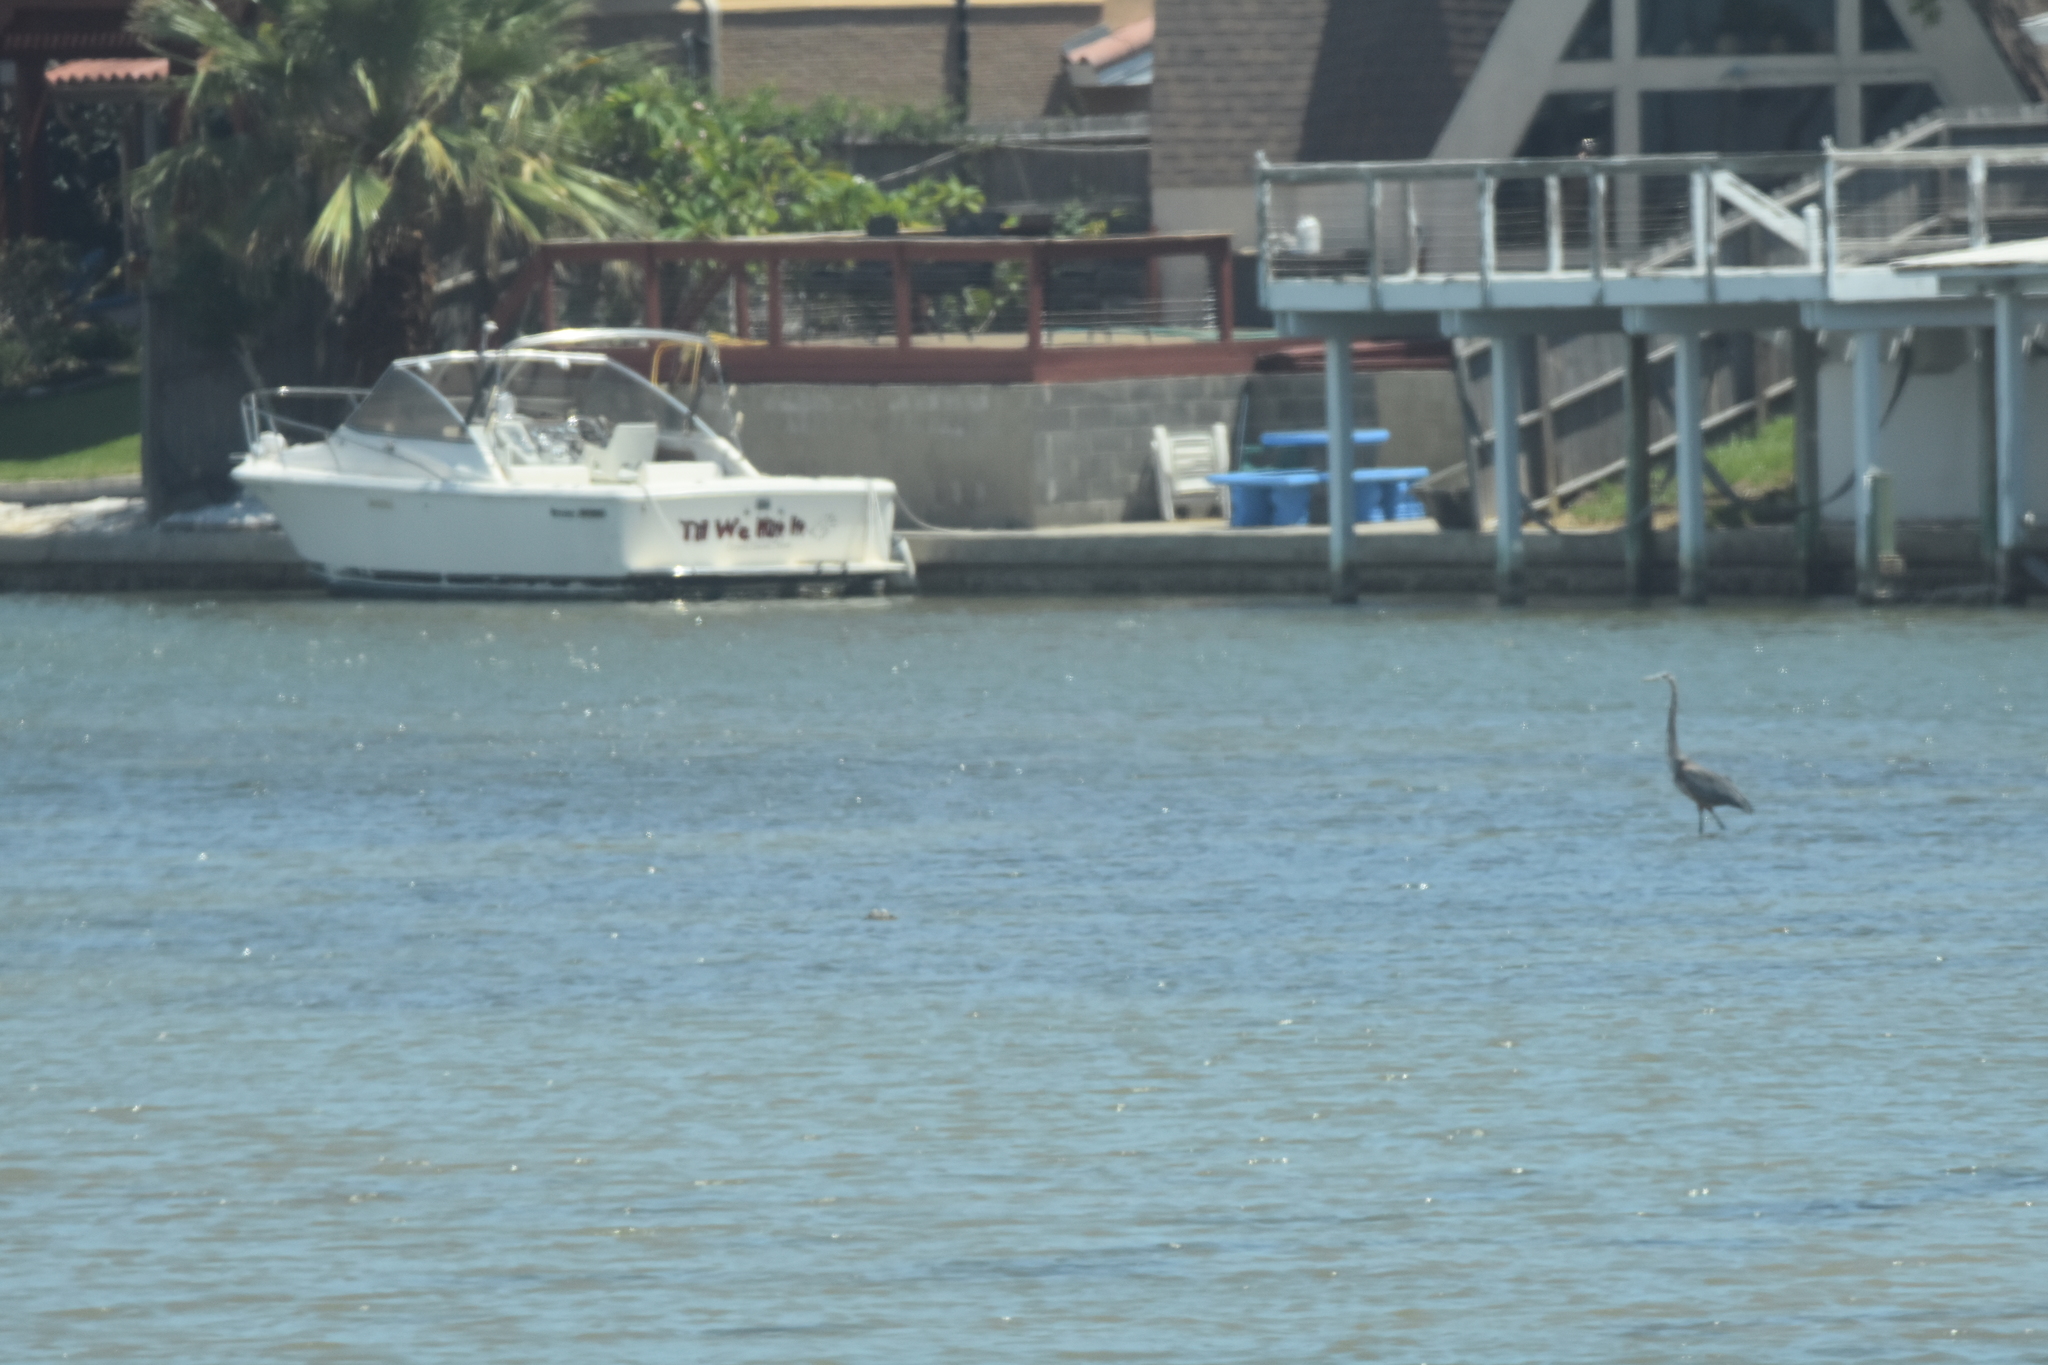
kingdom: Animalia
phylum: Chordata
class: Aves
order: Pelecaniformes
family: Ardeidae
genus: Ardea
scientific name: Ardea herodias
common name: Great blue heron
